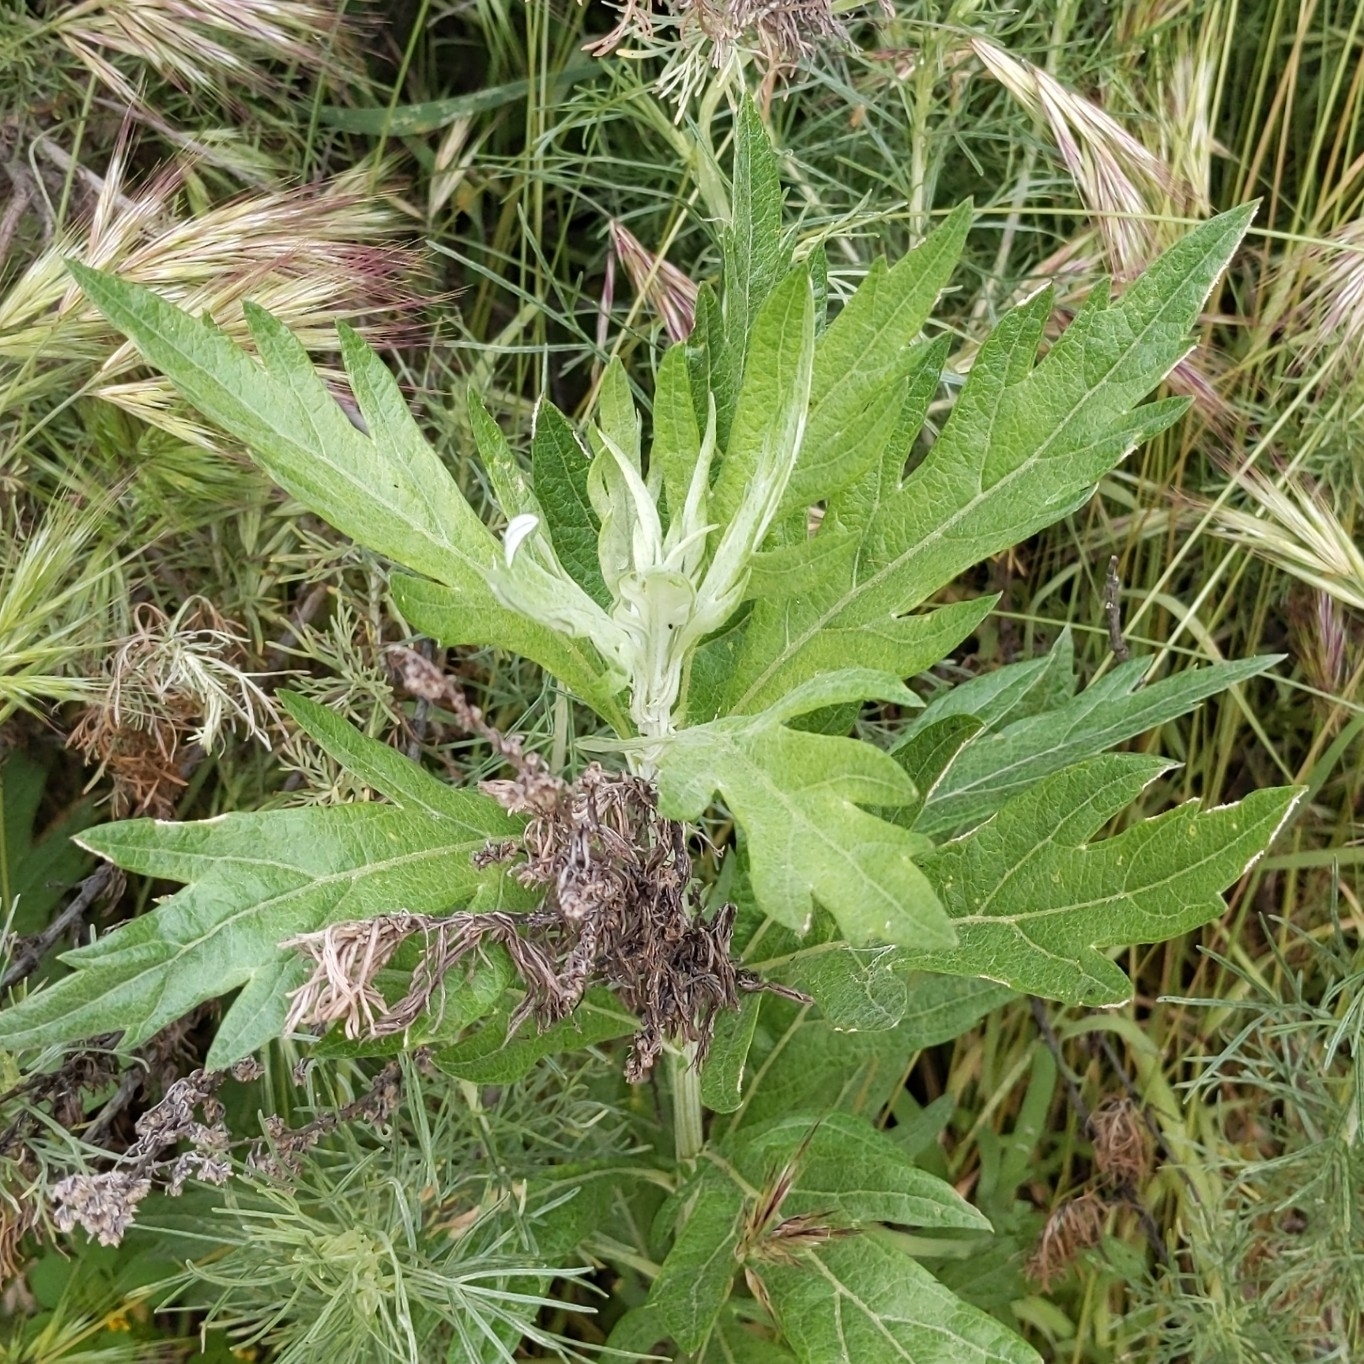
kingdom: Plantae
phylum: Tracheophyta
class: Magnoliopsida
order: Asterales
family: Asteraceae
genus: Artemisia
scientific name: Artemisia douglasiana
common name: Northwest mugwort
